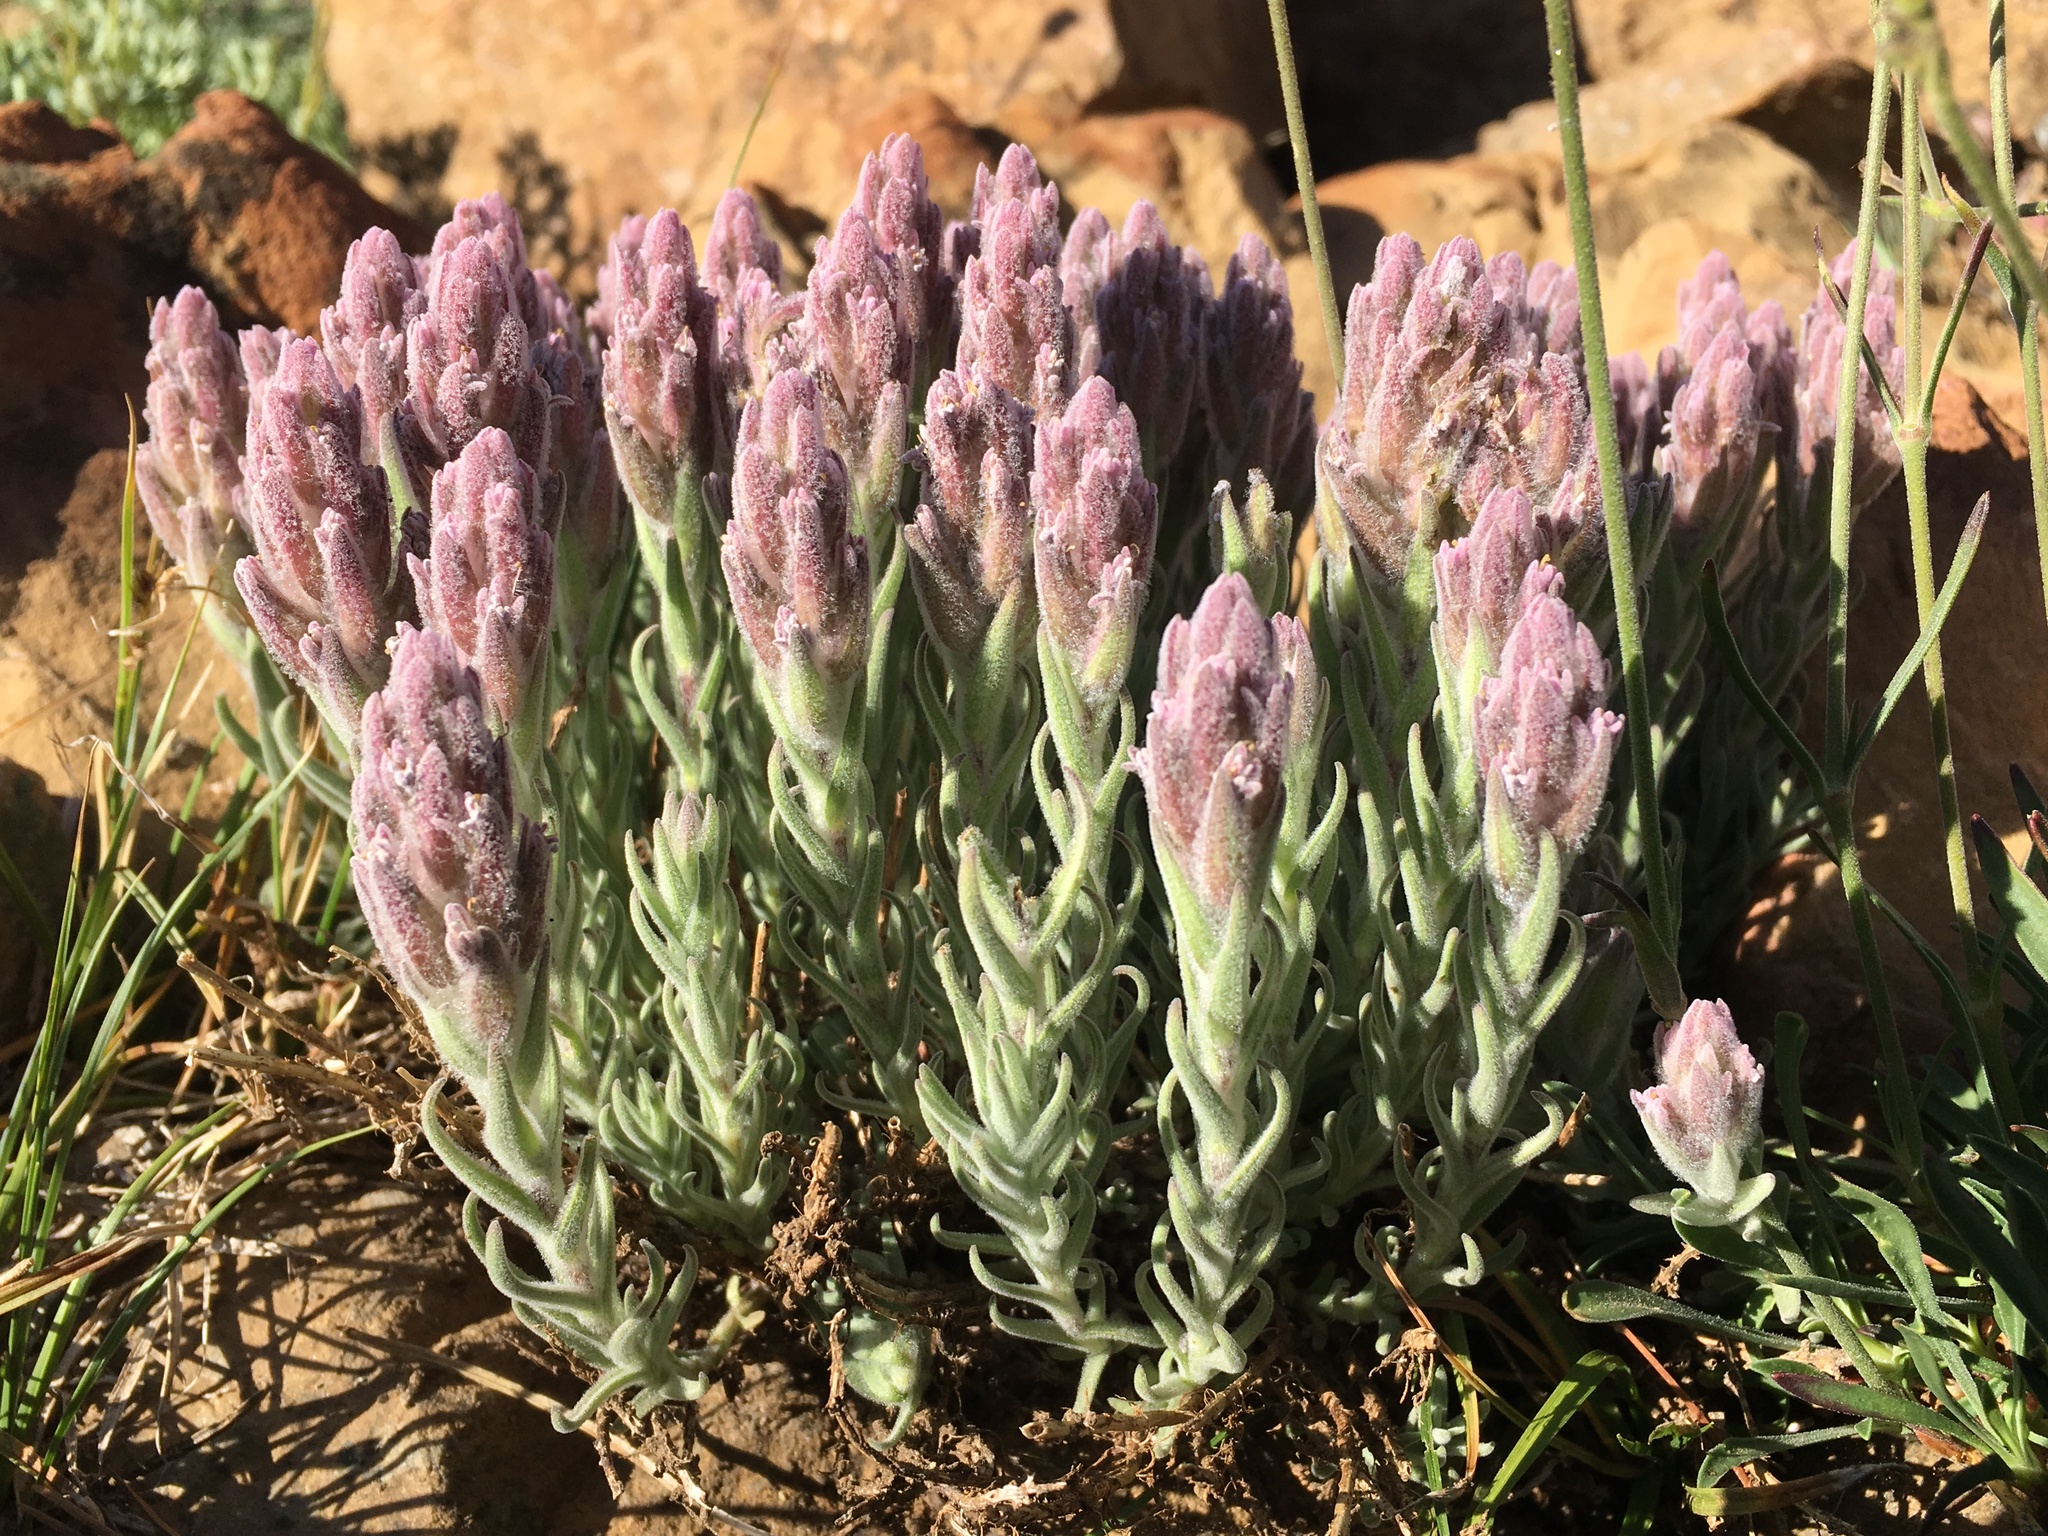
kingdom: Plantae
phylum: Tracheophyta
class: Magnoliopsida
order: Lamiales
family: Orobanchaceae
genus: Castilleja
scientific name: Castilleja schizotricha
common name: Split-hair indian paintbrush
